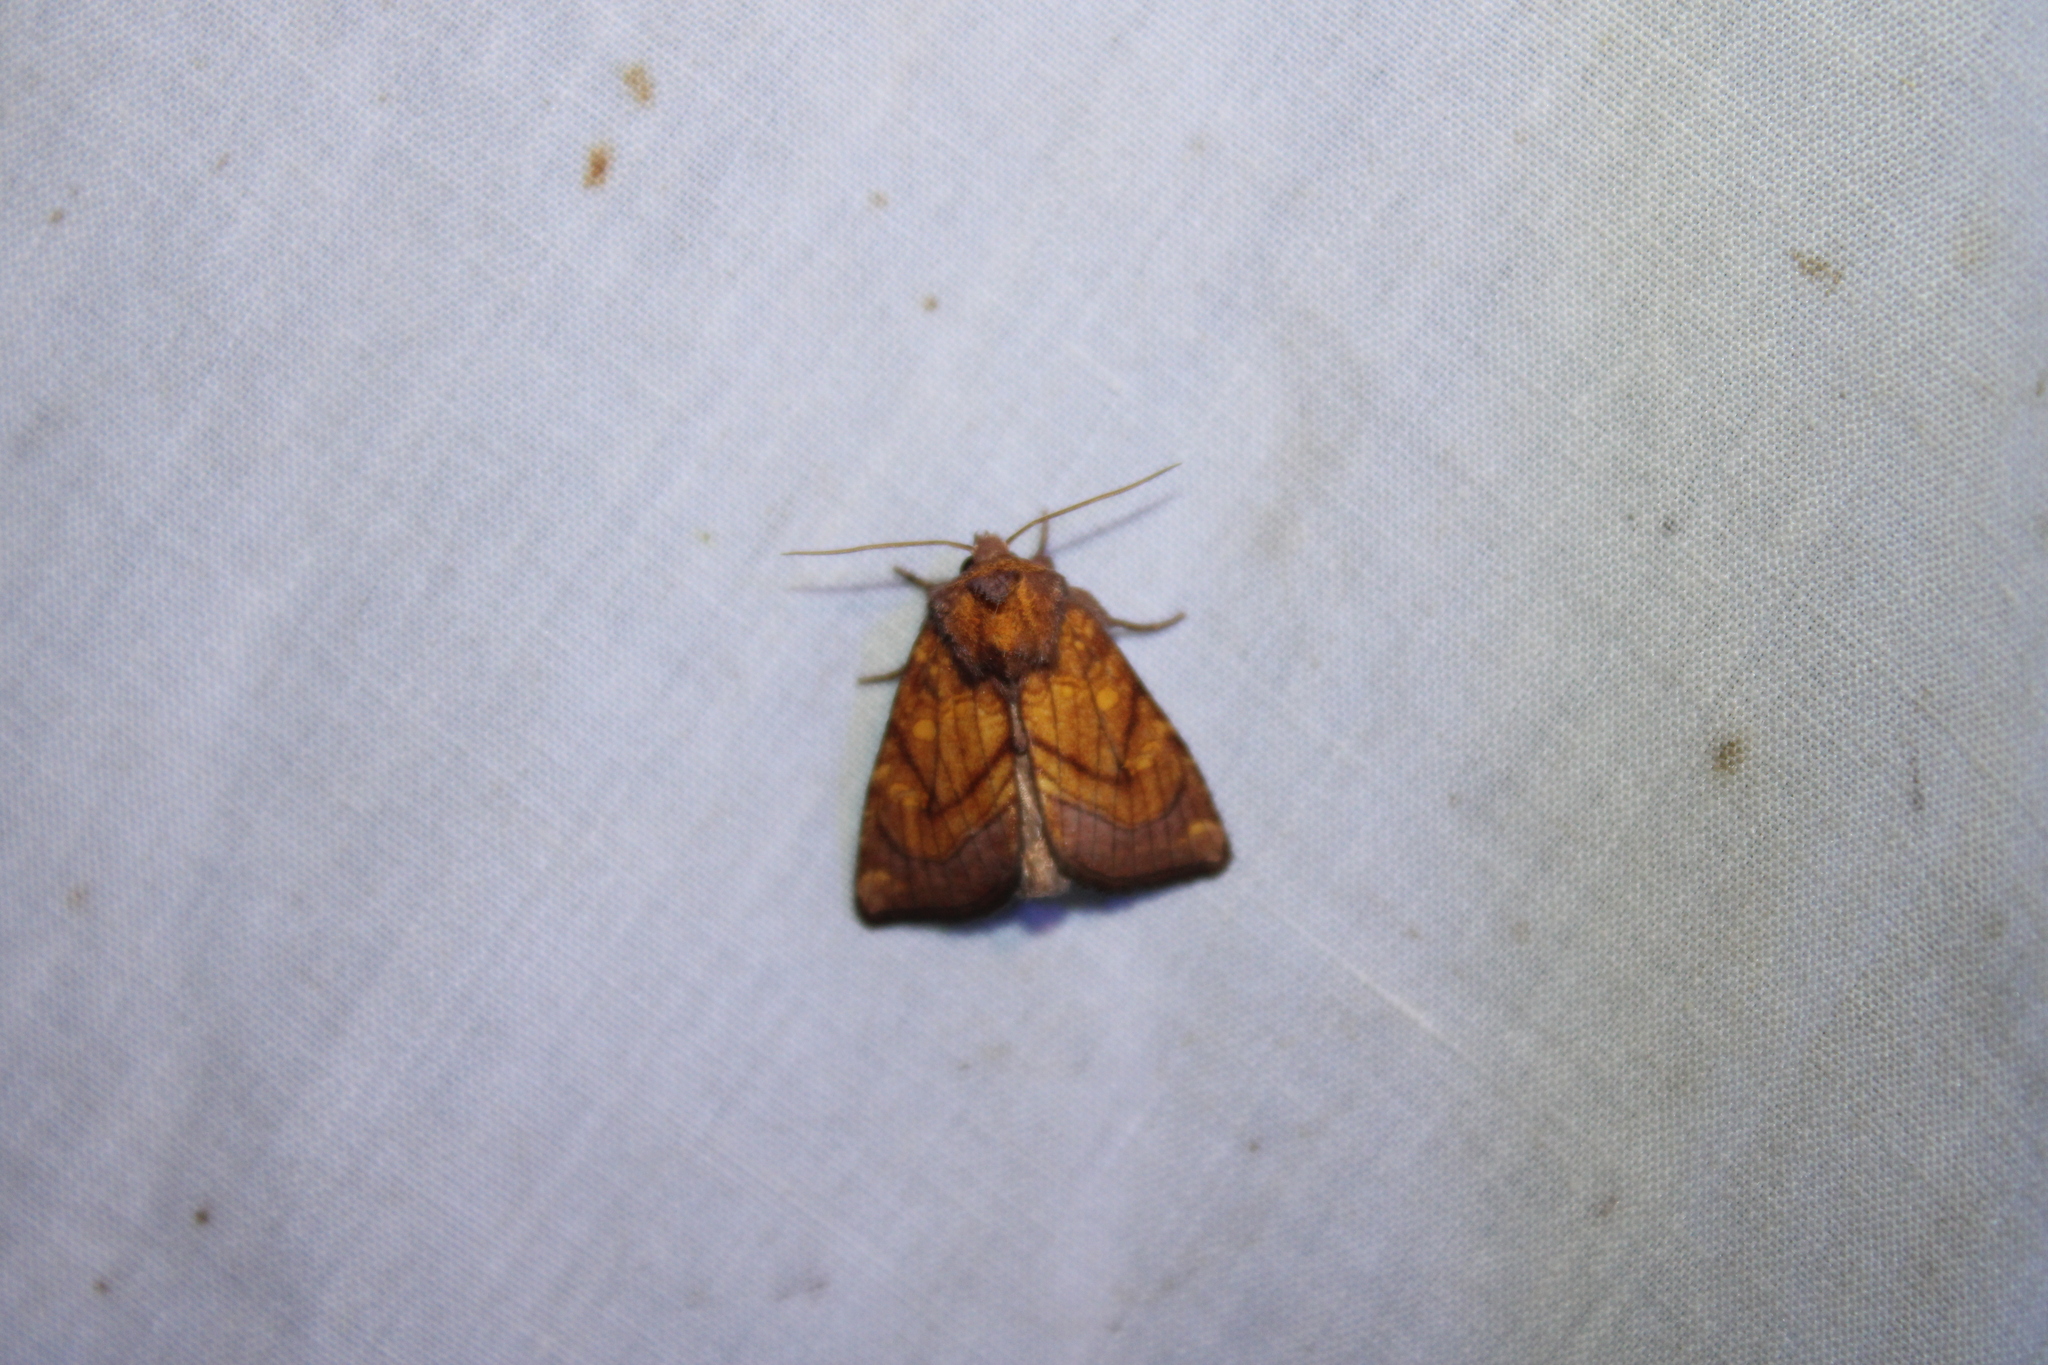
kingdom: Animalia
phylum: Arthropoda
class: Insecta
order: Lepidoptera
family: Noctuidae
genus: Papaipema
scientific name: Papaipema inquaesita
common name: Sensitive fern borer moth
